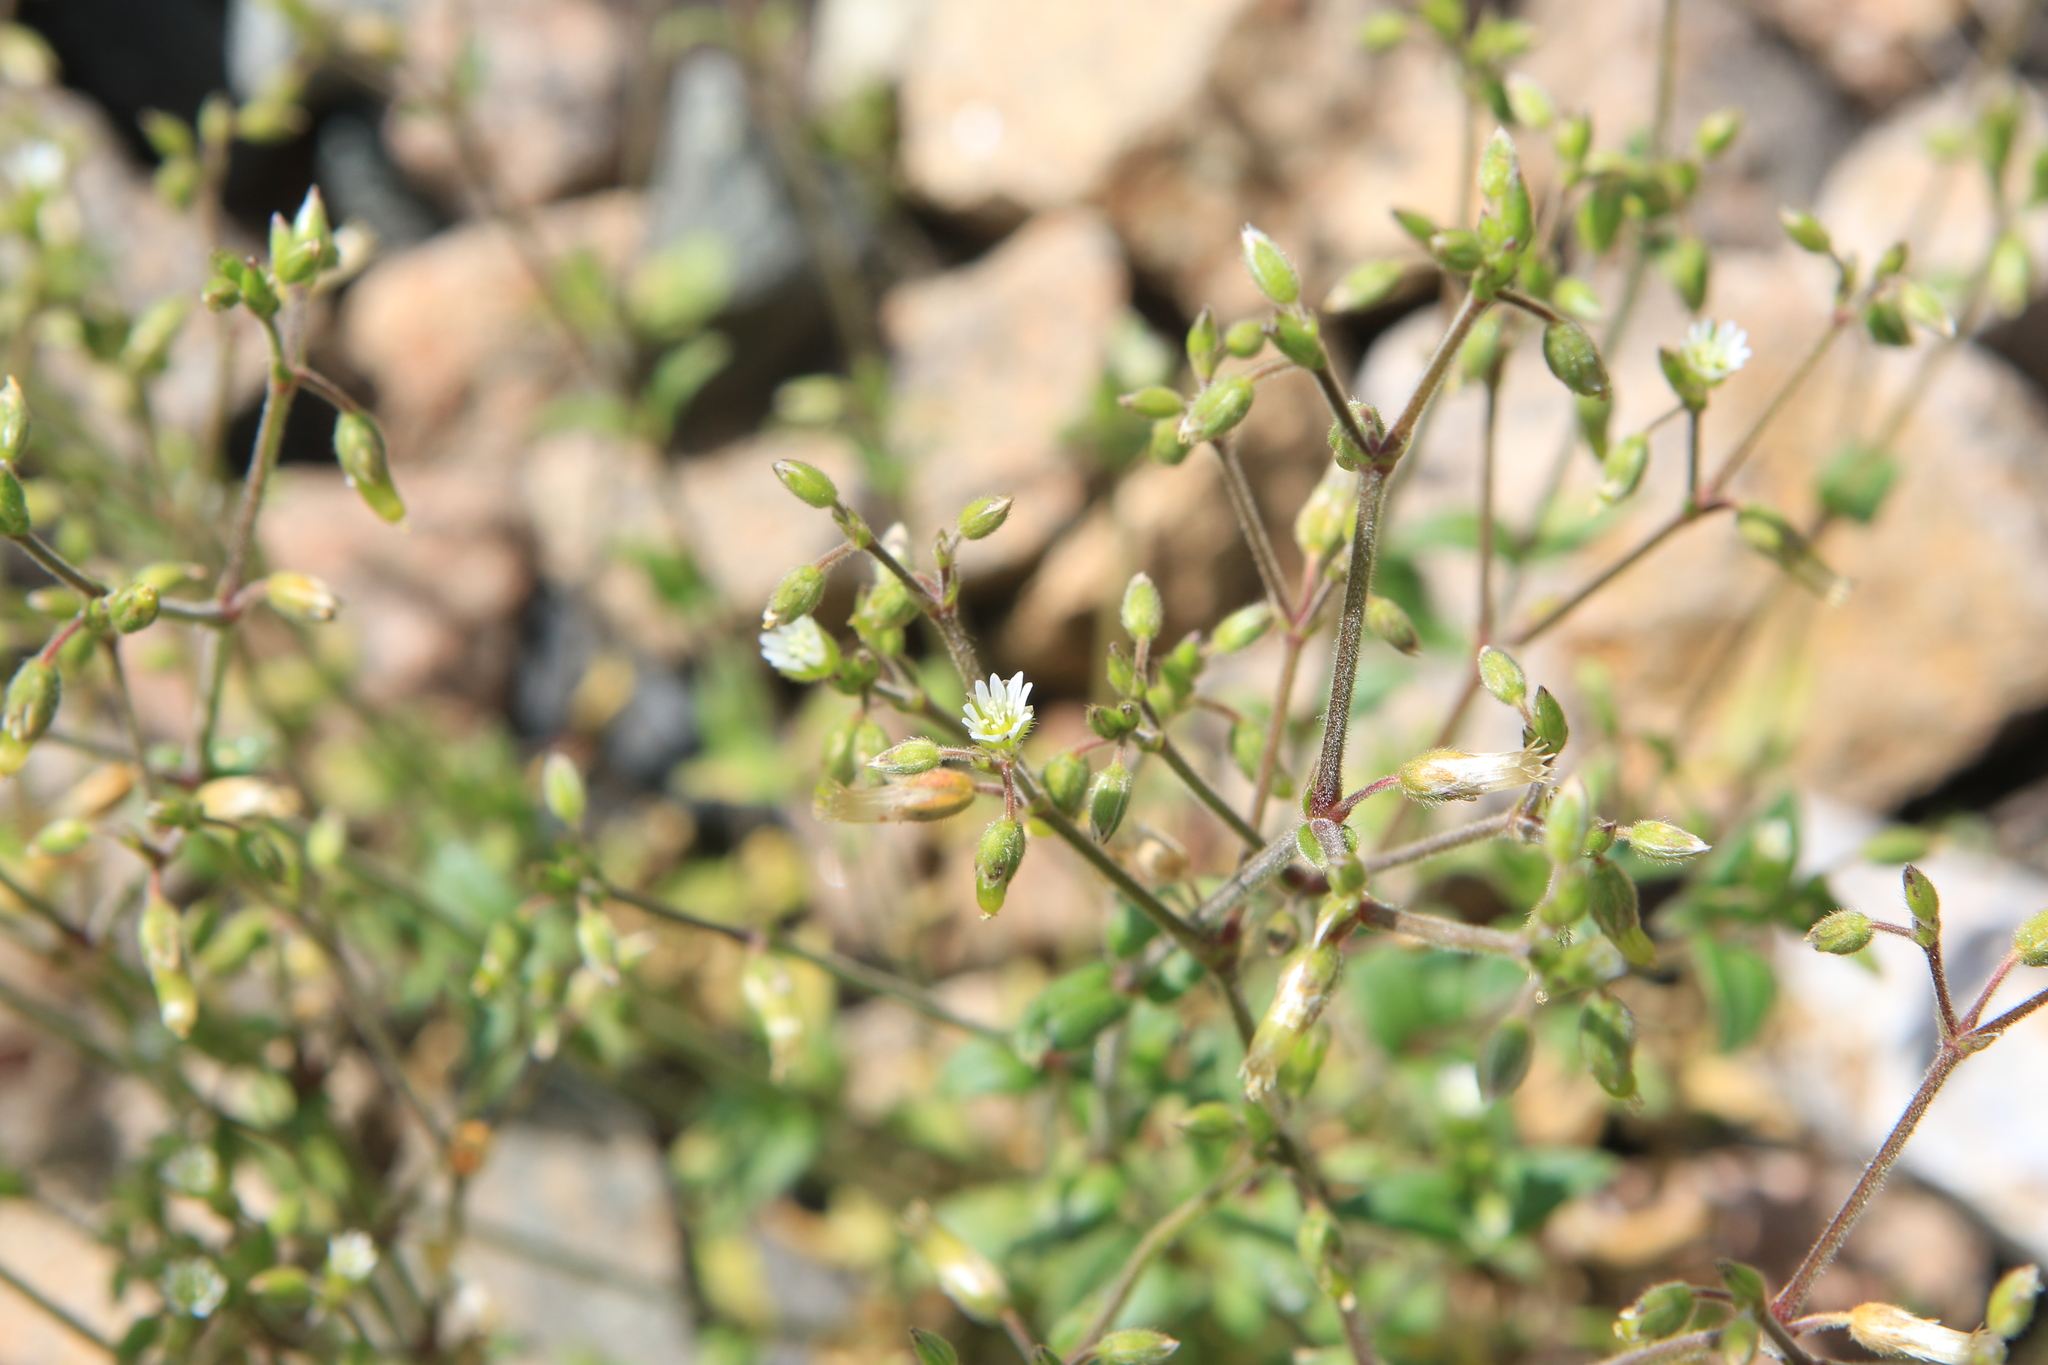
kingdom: Plantae
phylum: Tracheophyta
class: Magnoliopsida
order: Caryophyllales
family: Caryophyllaceae
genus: Cerastium
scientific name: Cerastium holosteoides
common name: Big chickweed
